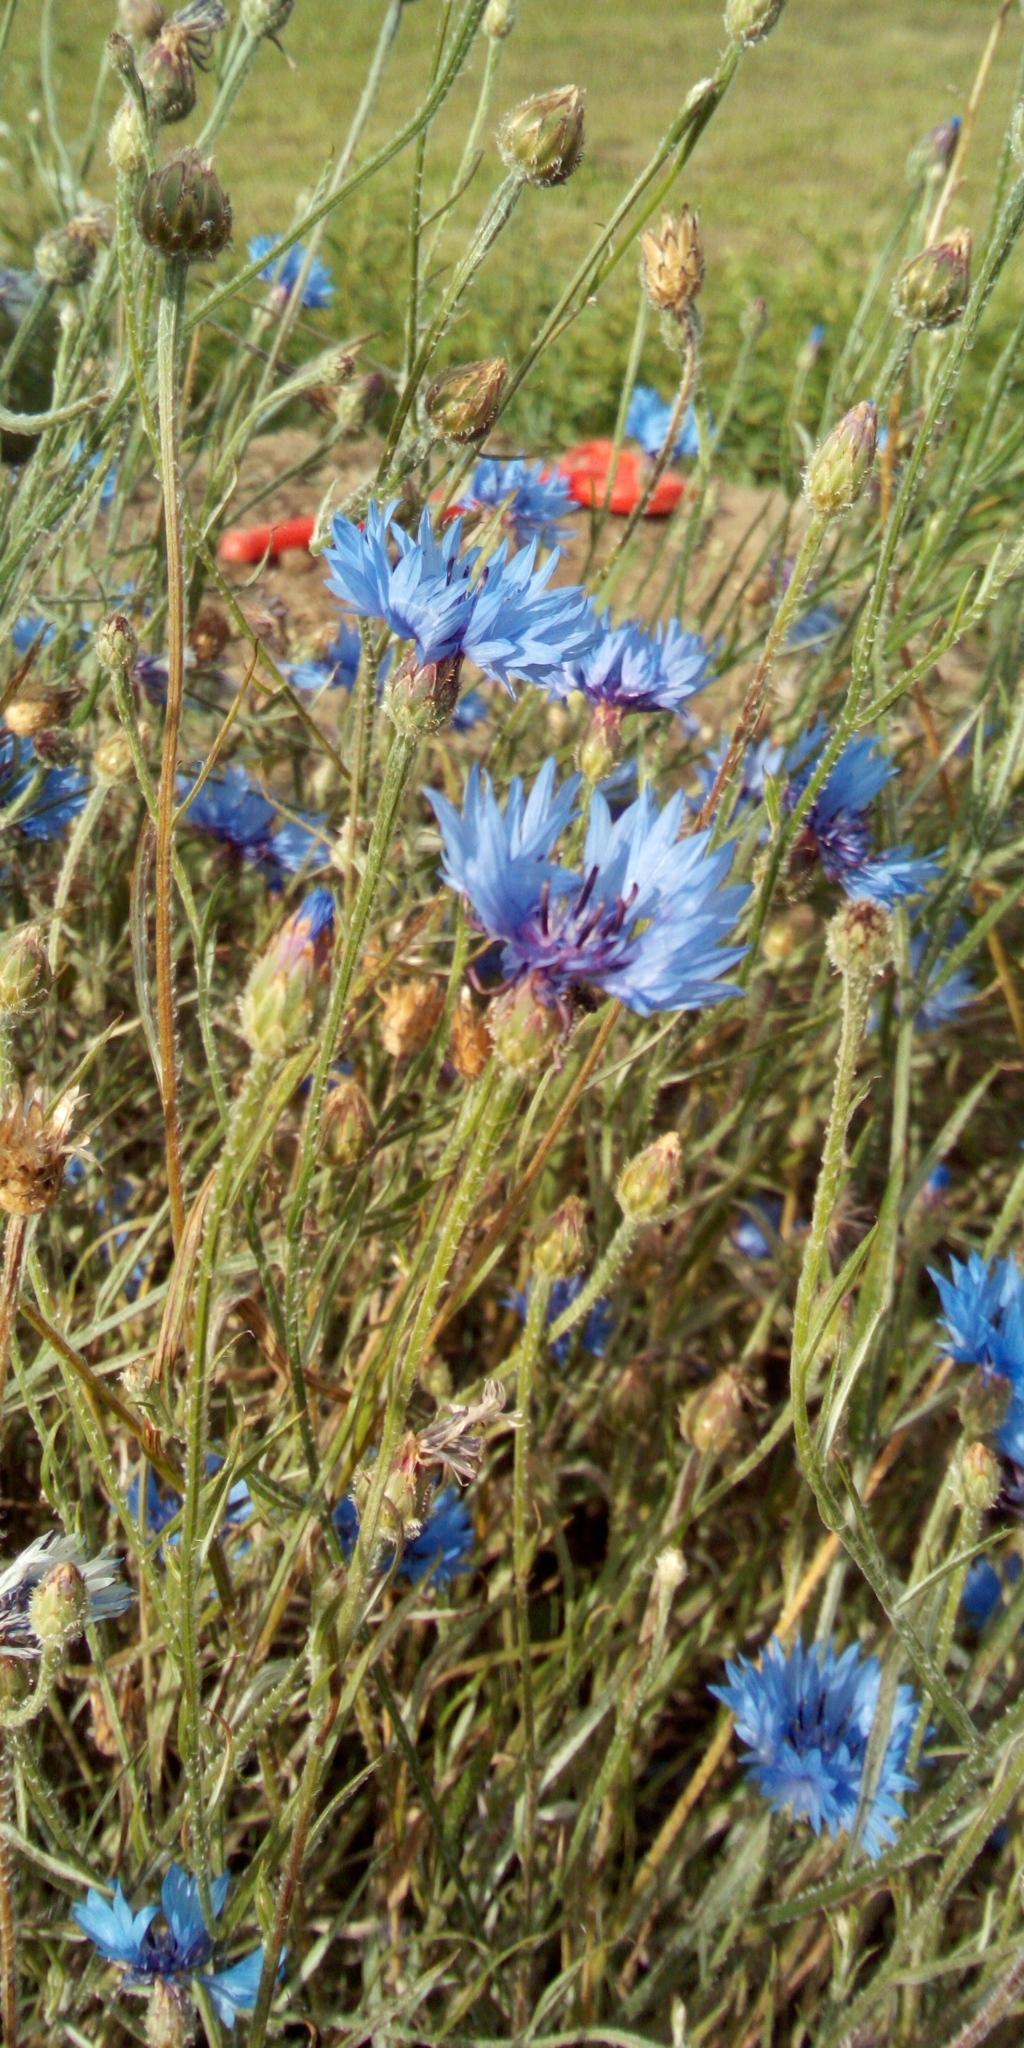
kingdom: Plantae
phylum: Tracheophyta
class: Magnoliopsida
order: Asterales
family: Asteraceae
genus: Centaurea
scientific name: Centaurea cyanus
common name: Cornflower
